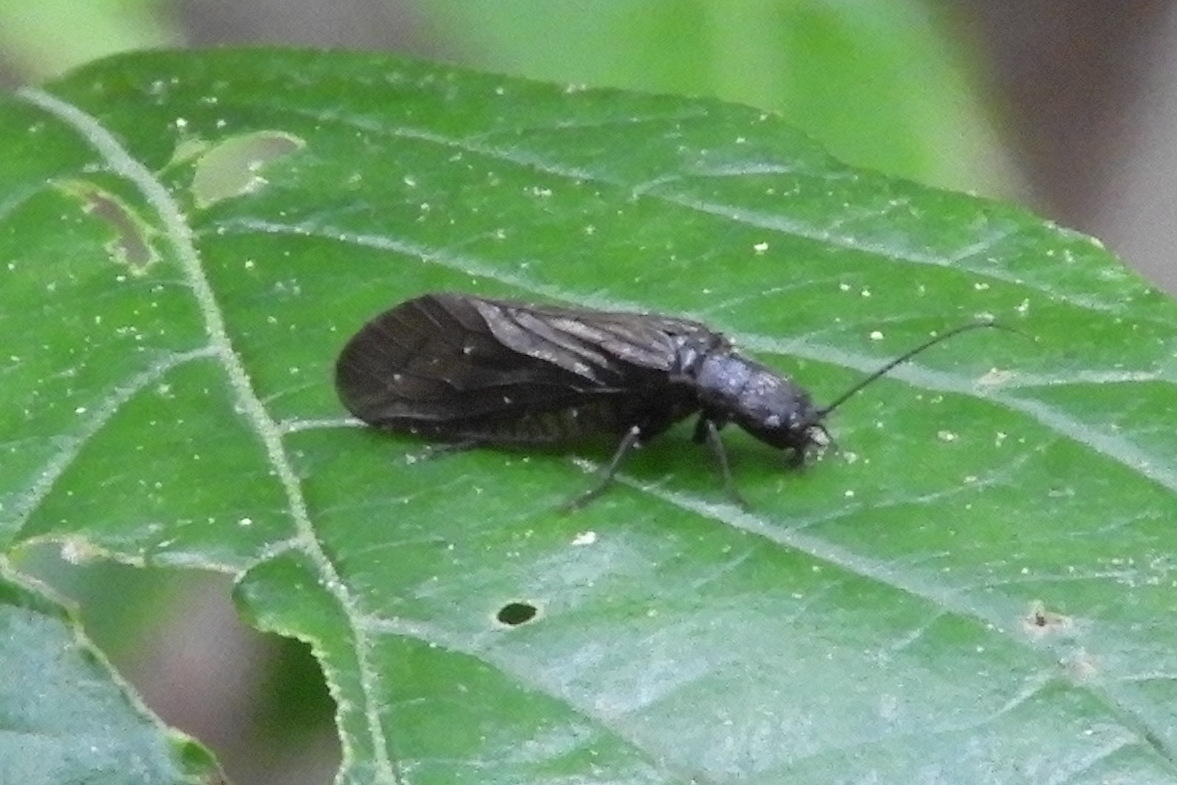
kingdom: Animalia
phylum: Arthropoda
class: Insecta
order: Megaloptera
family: Sialidae
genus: Sialis
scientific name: Sialis
